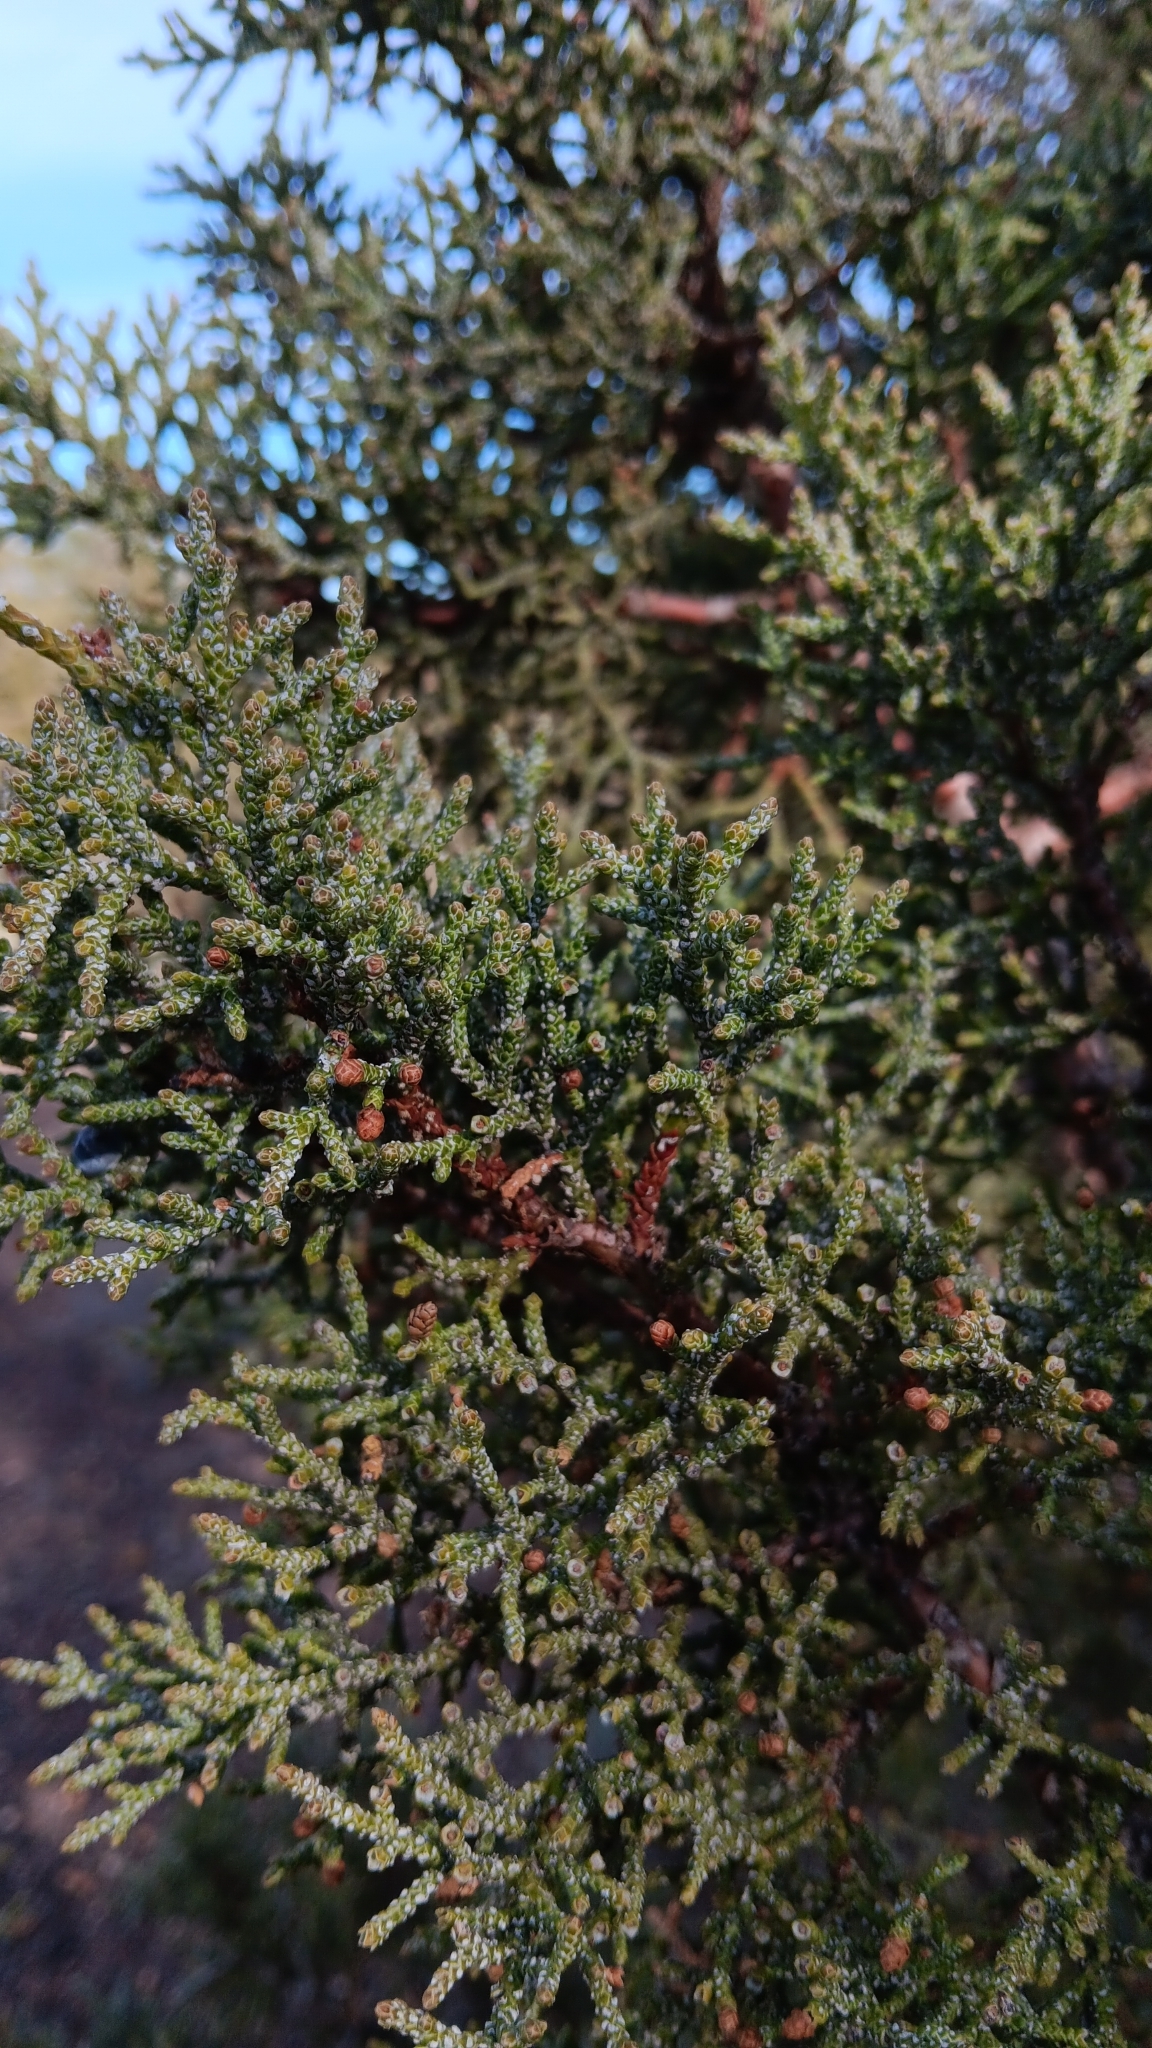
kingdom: Plantae
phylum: Tracheophyta
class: Pinopsida
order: Pinales
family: Cupressaceae
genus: Juniperus
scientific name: Juniperus occidentalis
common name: Western juniper
